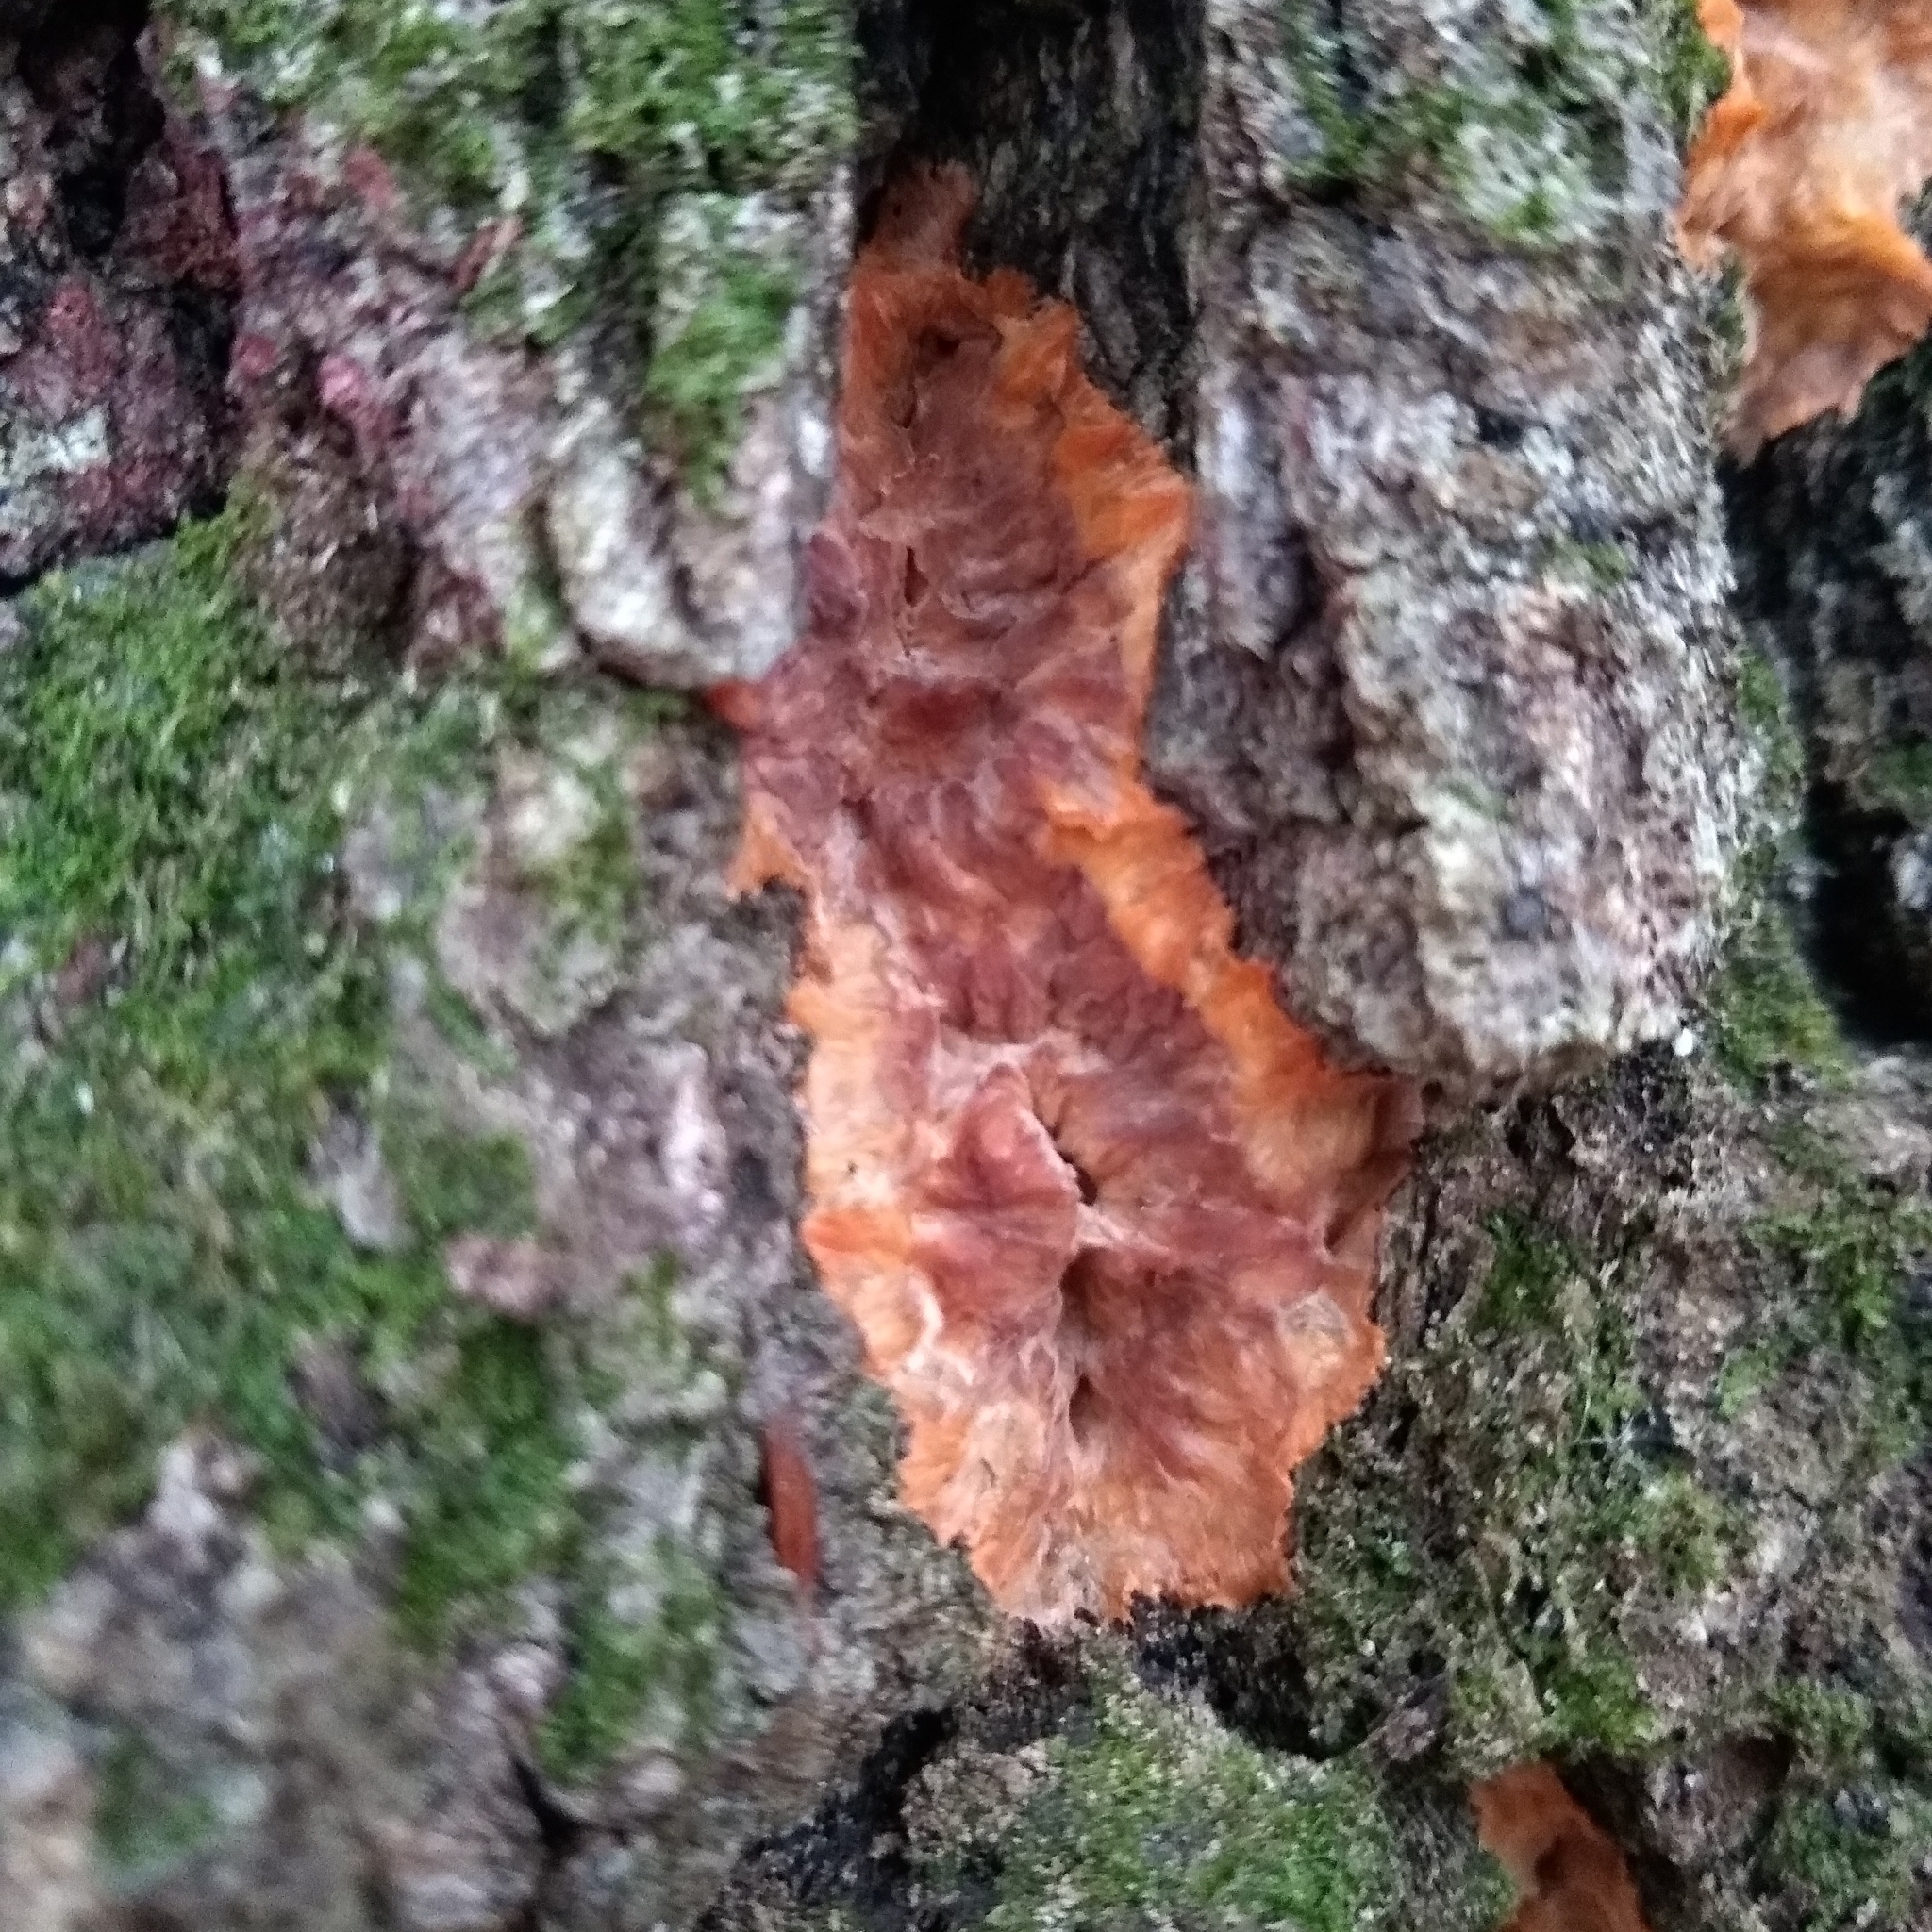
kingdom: Fungi
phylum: Basidiomycota
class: Agaricomycetes
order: Polyporales
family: Meruliaceae
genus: Phlebia
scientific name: Phlebia radiata
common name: Wrinkled crust
